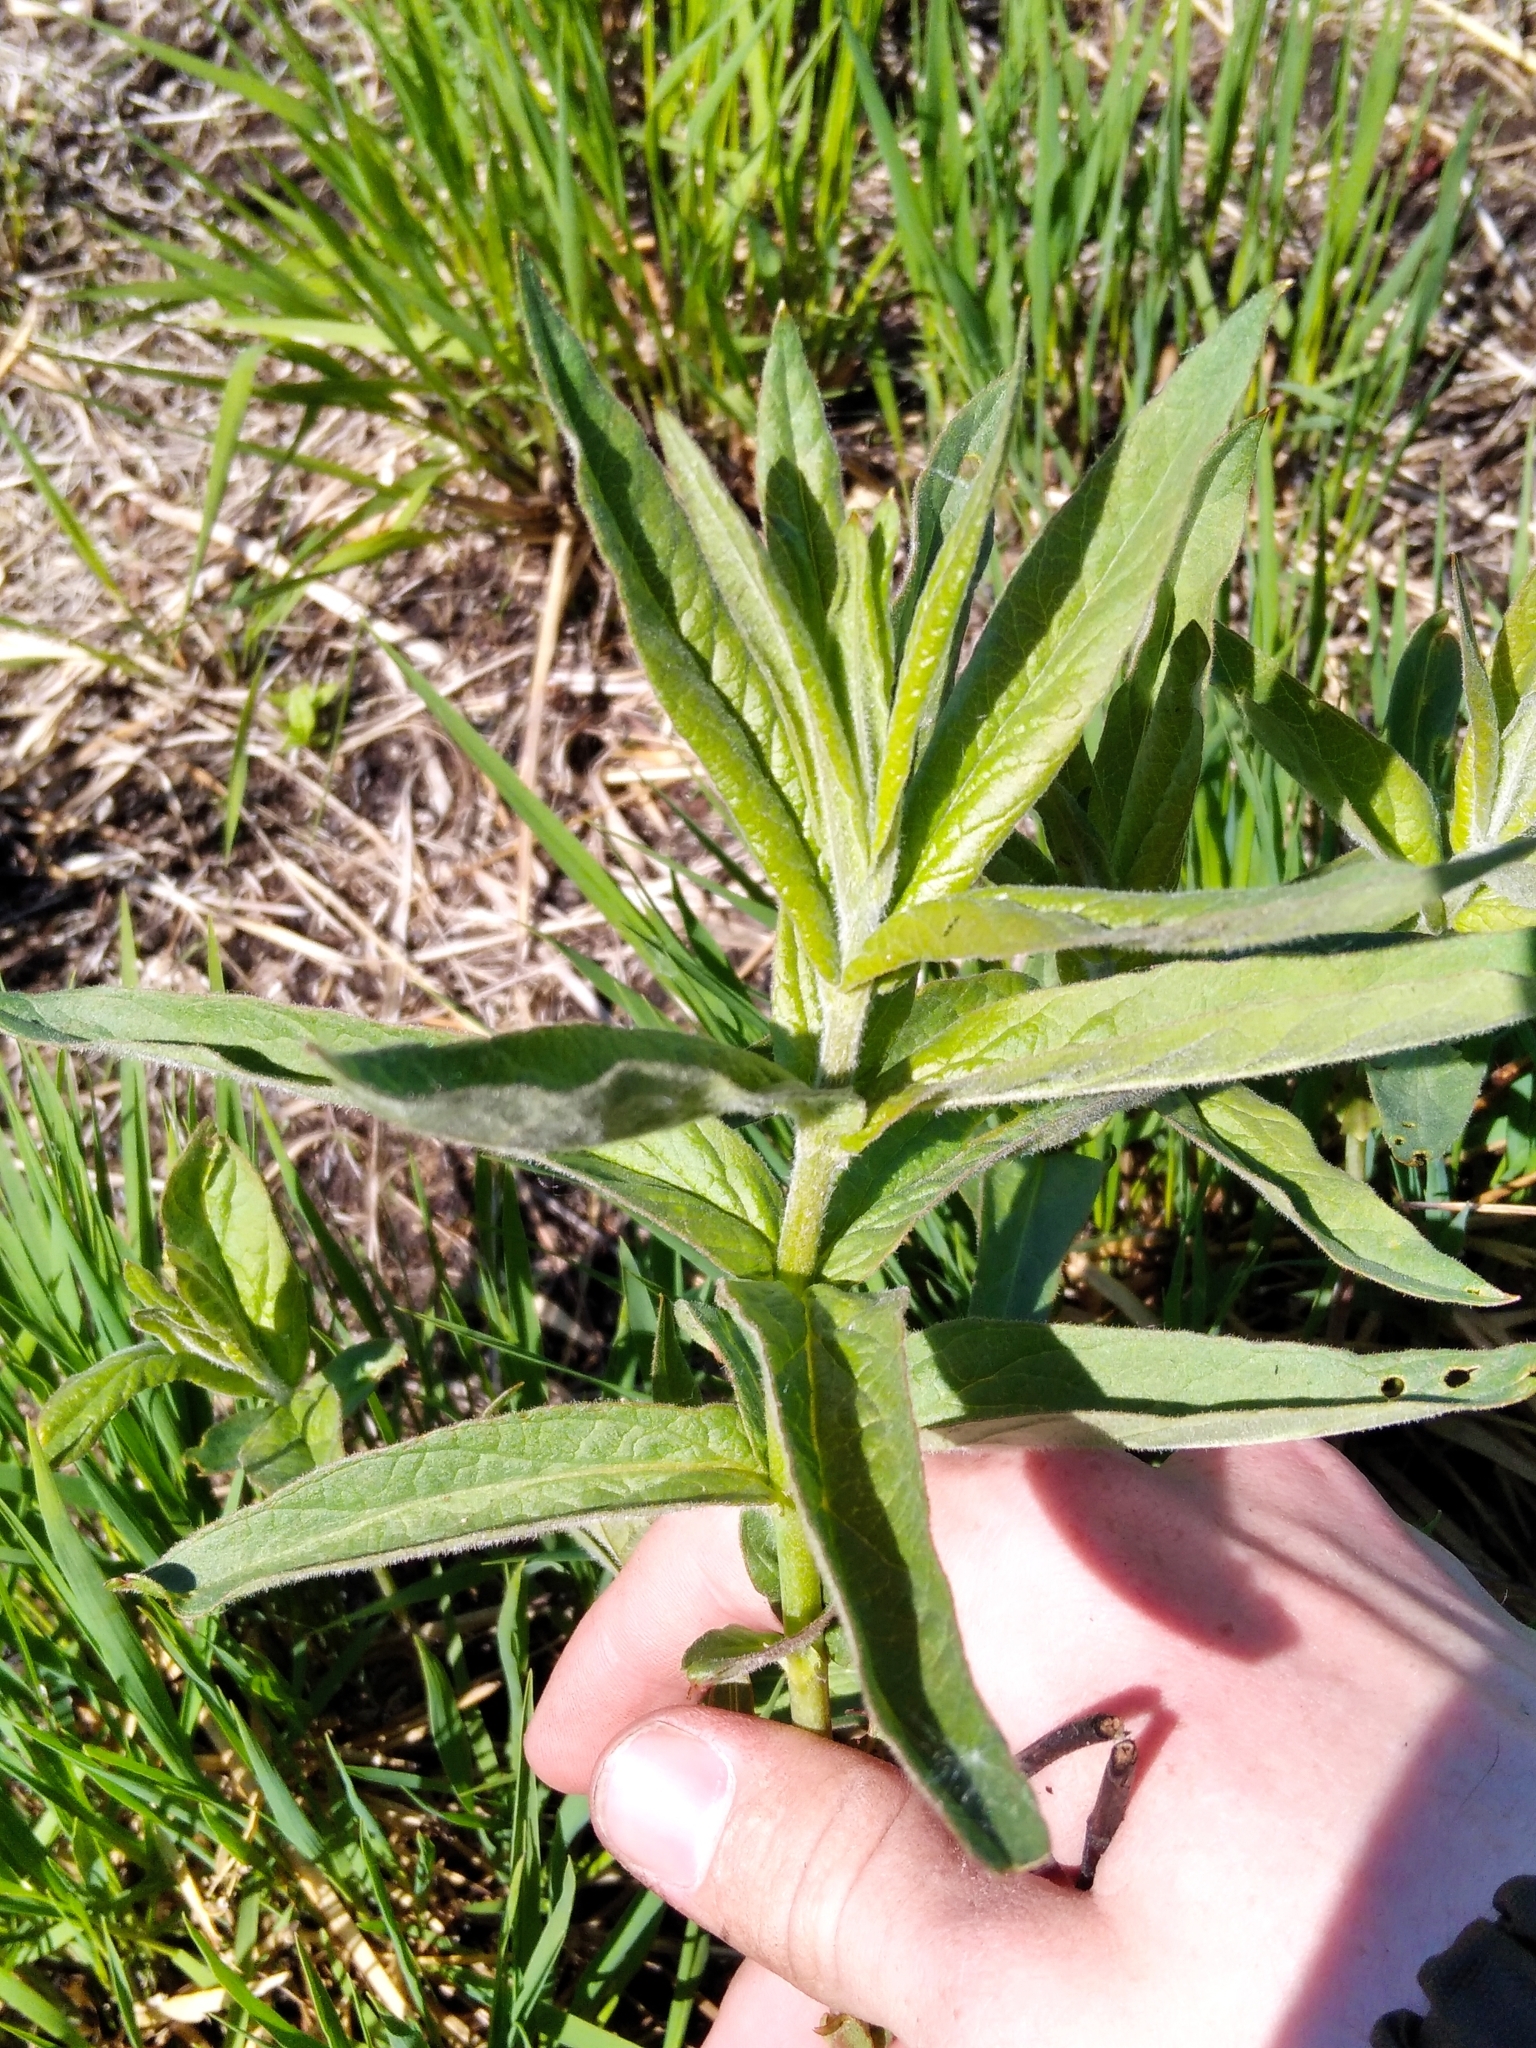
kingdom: Plantae
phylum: Tracheophyta
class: Magnoliopsida
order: Ericales
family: Primulaceae
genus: Lysimachia
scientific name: Lysimachia vulgaris
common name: Yellow loosestrife
